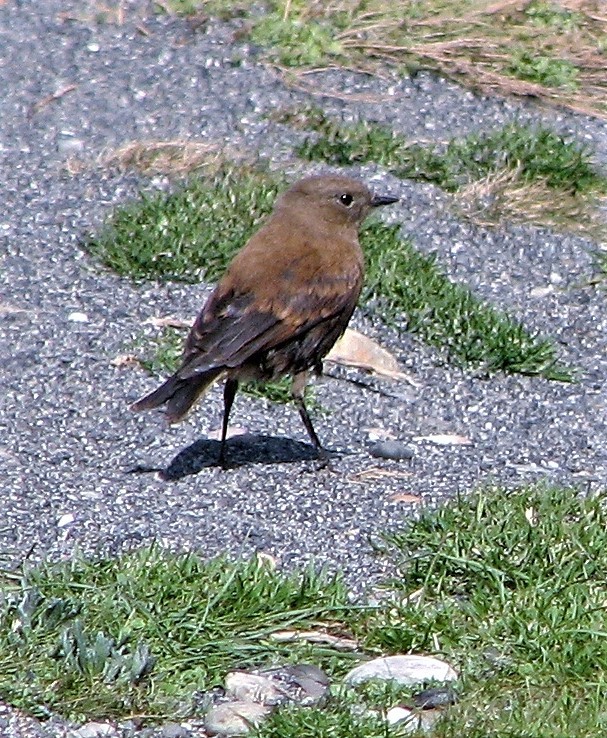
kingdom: Animalia
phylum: Chordata
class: Aves
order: Passeriformes
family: Tyrannidae
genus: Lessonia
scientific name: Lessonia rufa
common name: Austral negrito
